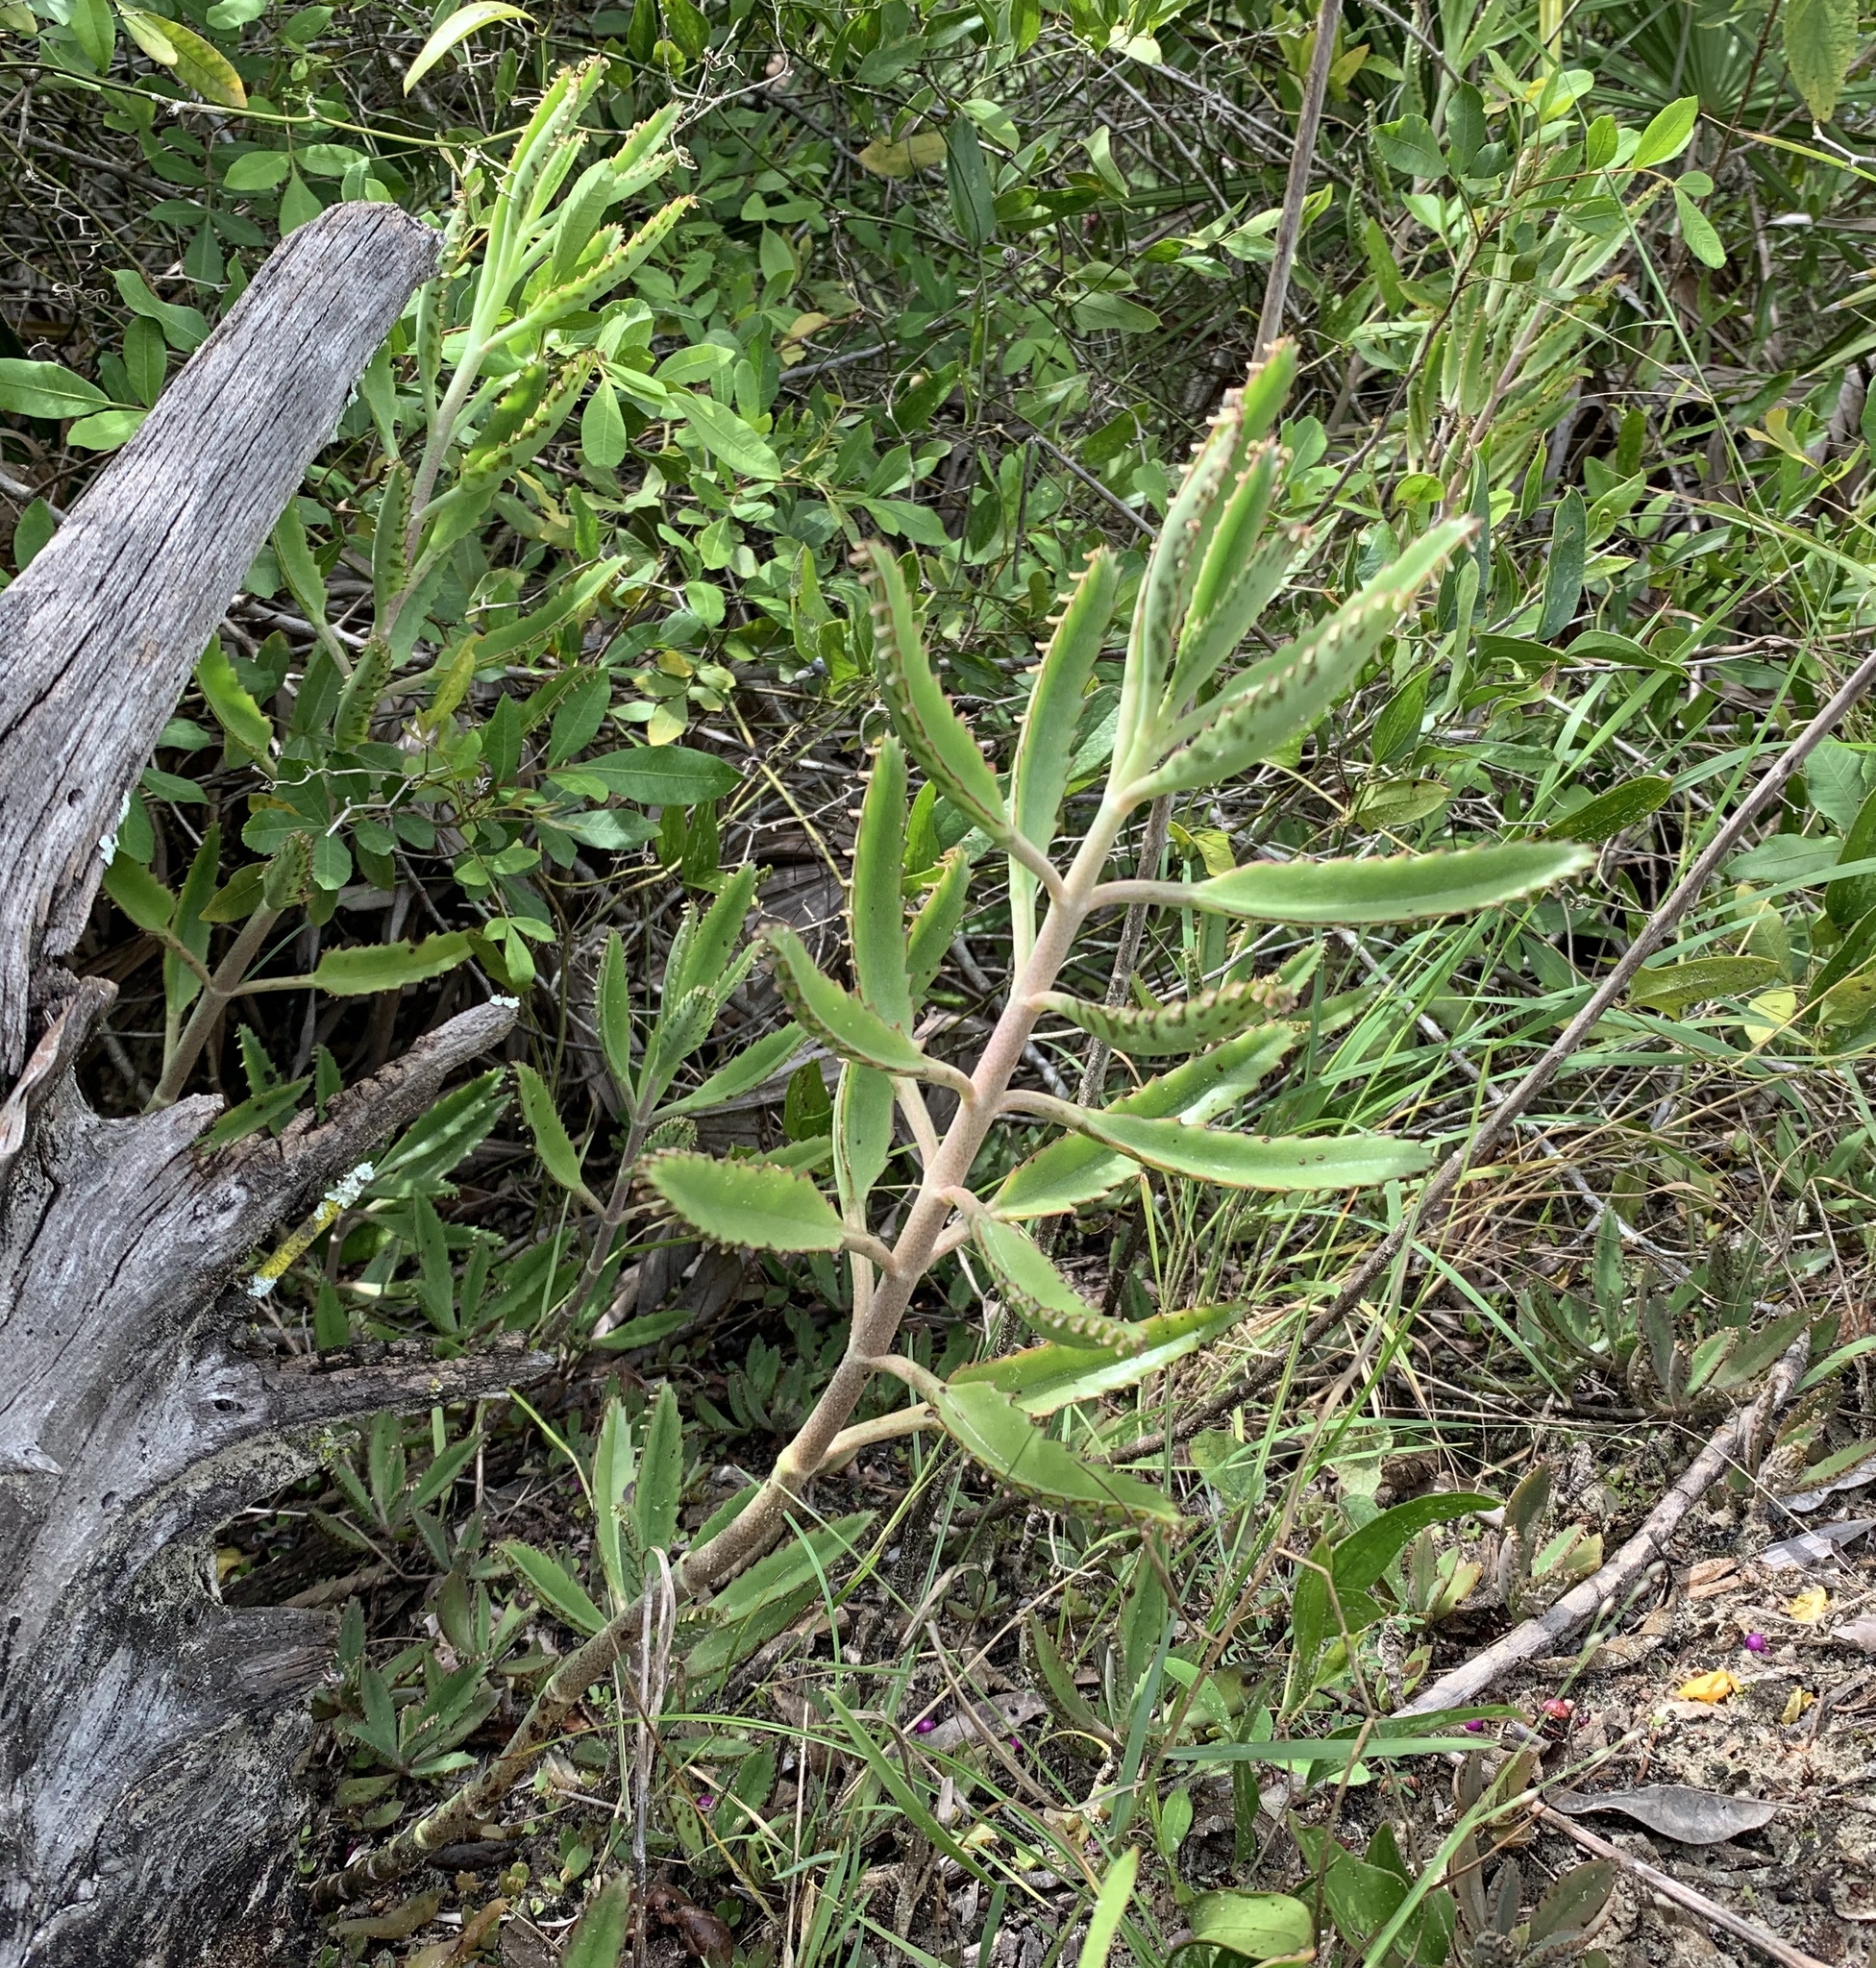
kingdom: Plantae
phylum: Tracheophyta
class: Magnoliopsida
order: Saxifragales
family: Crassulaceae
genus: Kalanchoe
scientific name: Kalanchoe houghtonii
